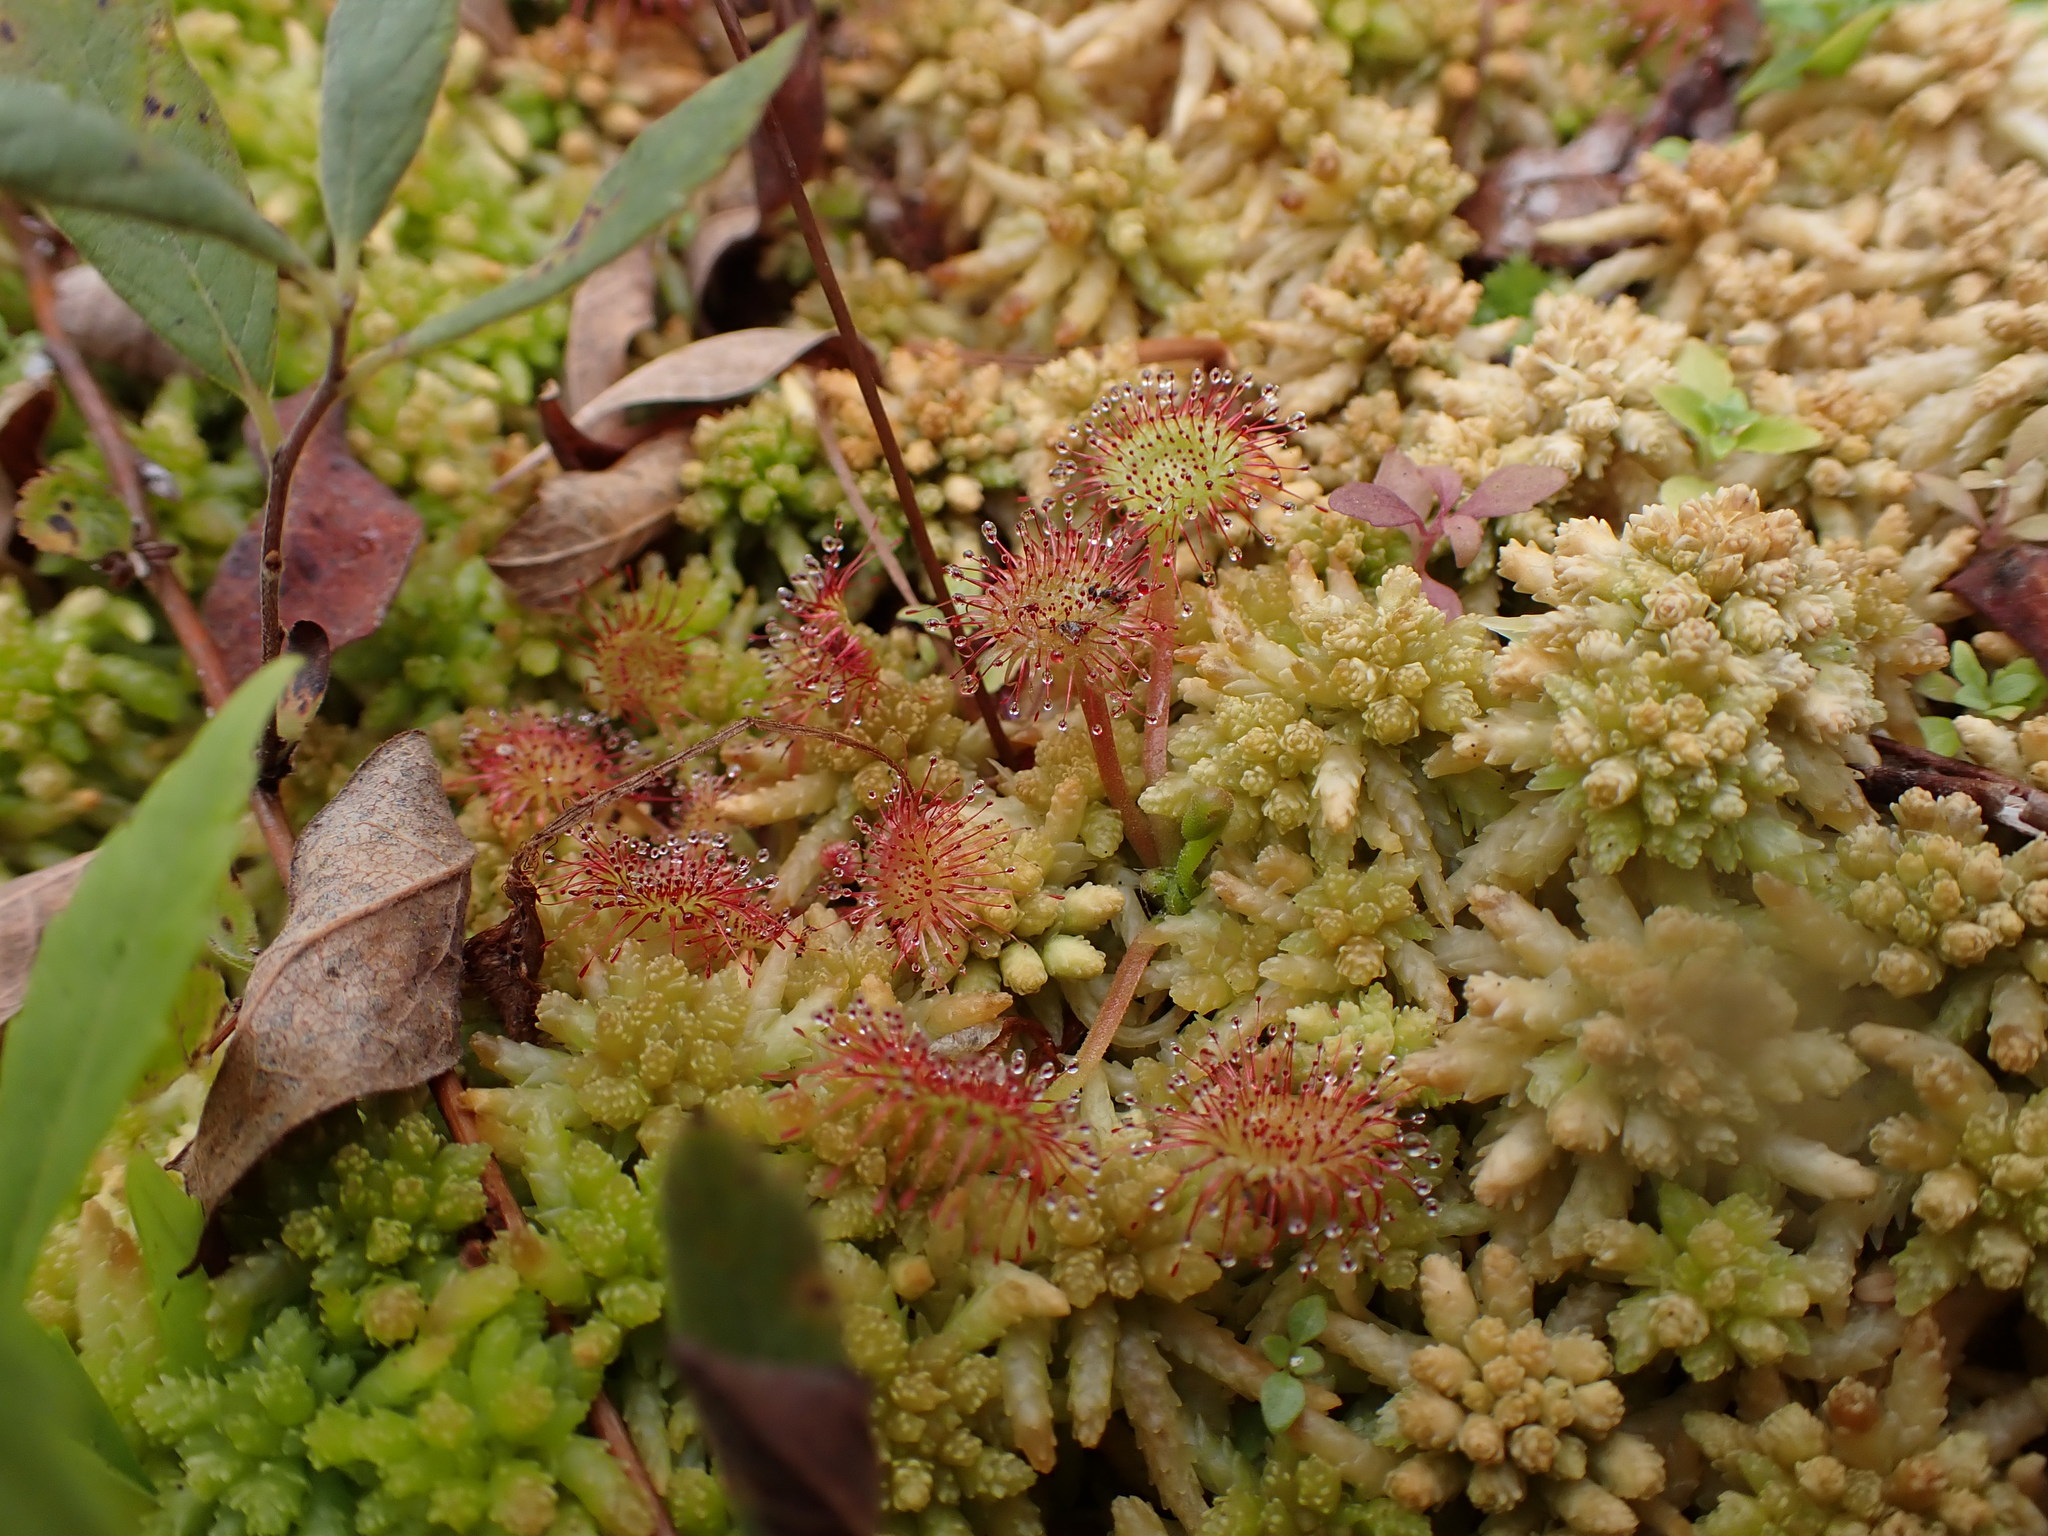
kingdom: Plantae
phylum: Tracheophyta
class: Magnoliopsida
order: Caryophyllales
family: Droseraceae
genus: Drosera
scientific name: Drosera rotundifolia
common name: Round-leaved sundew
